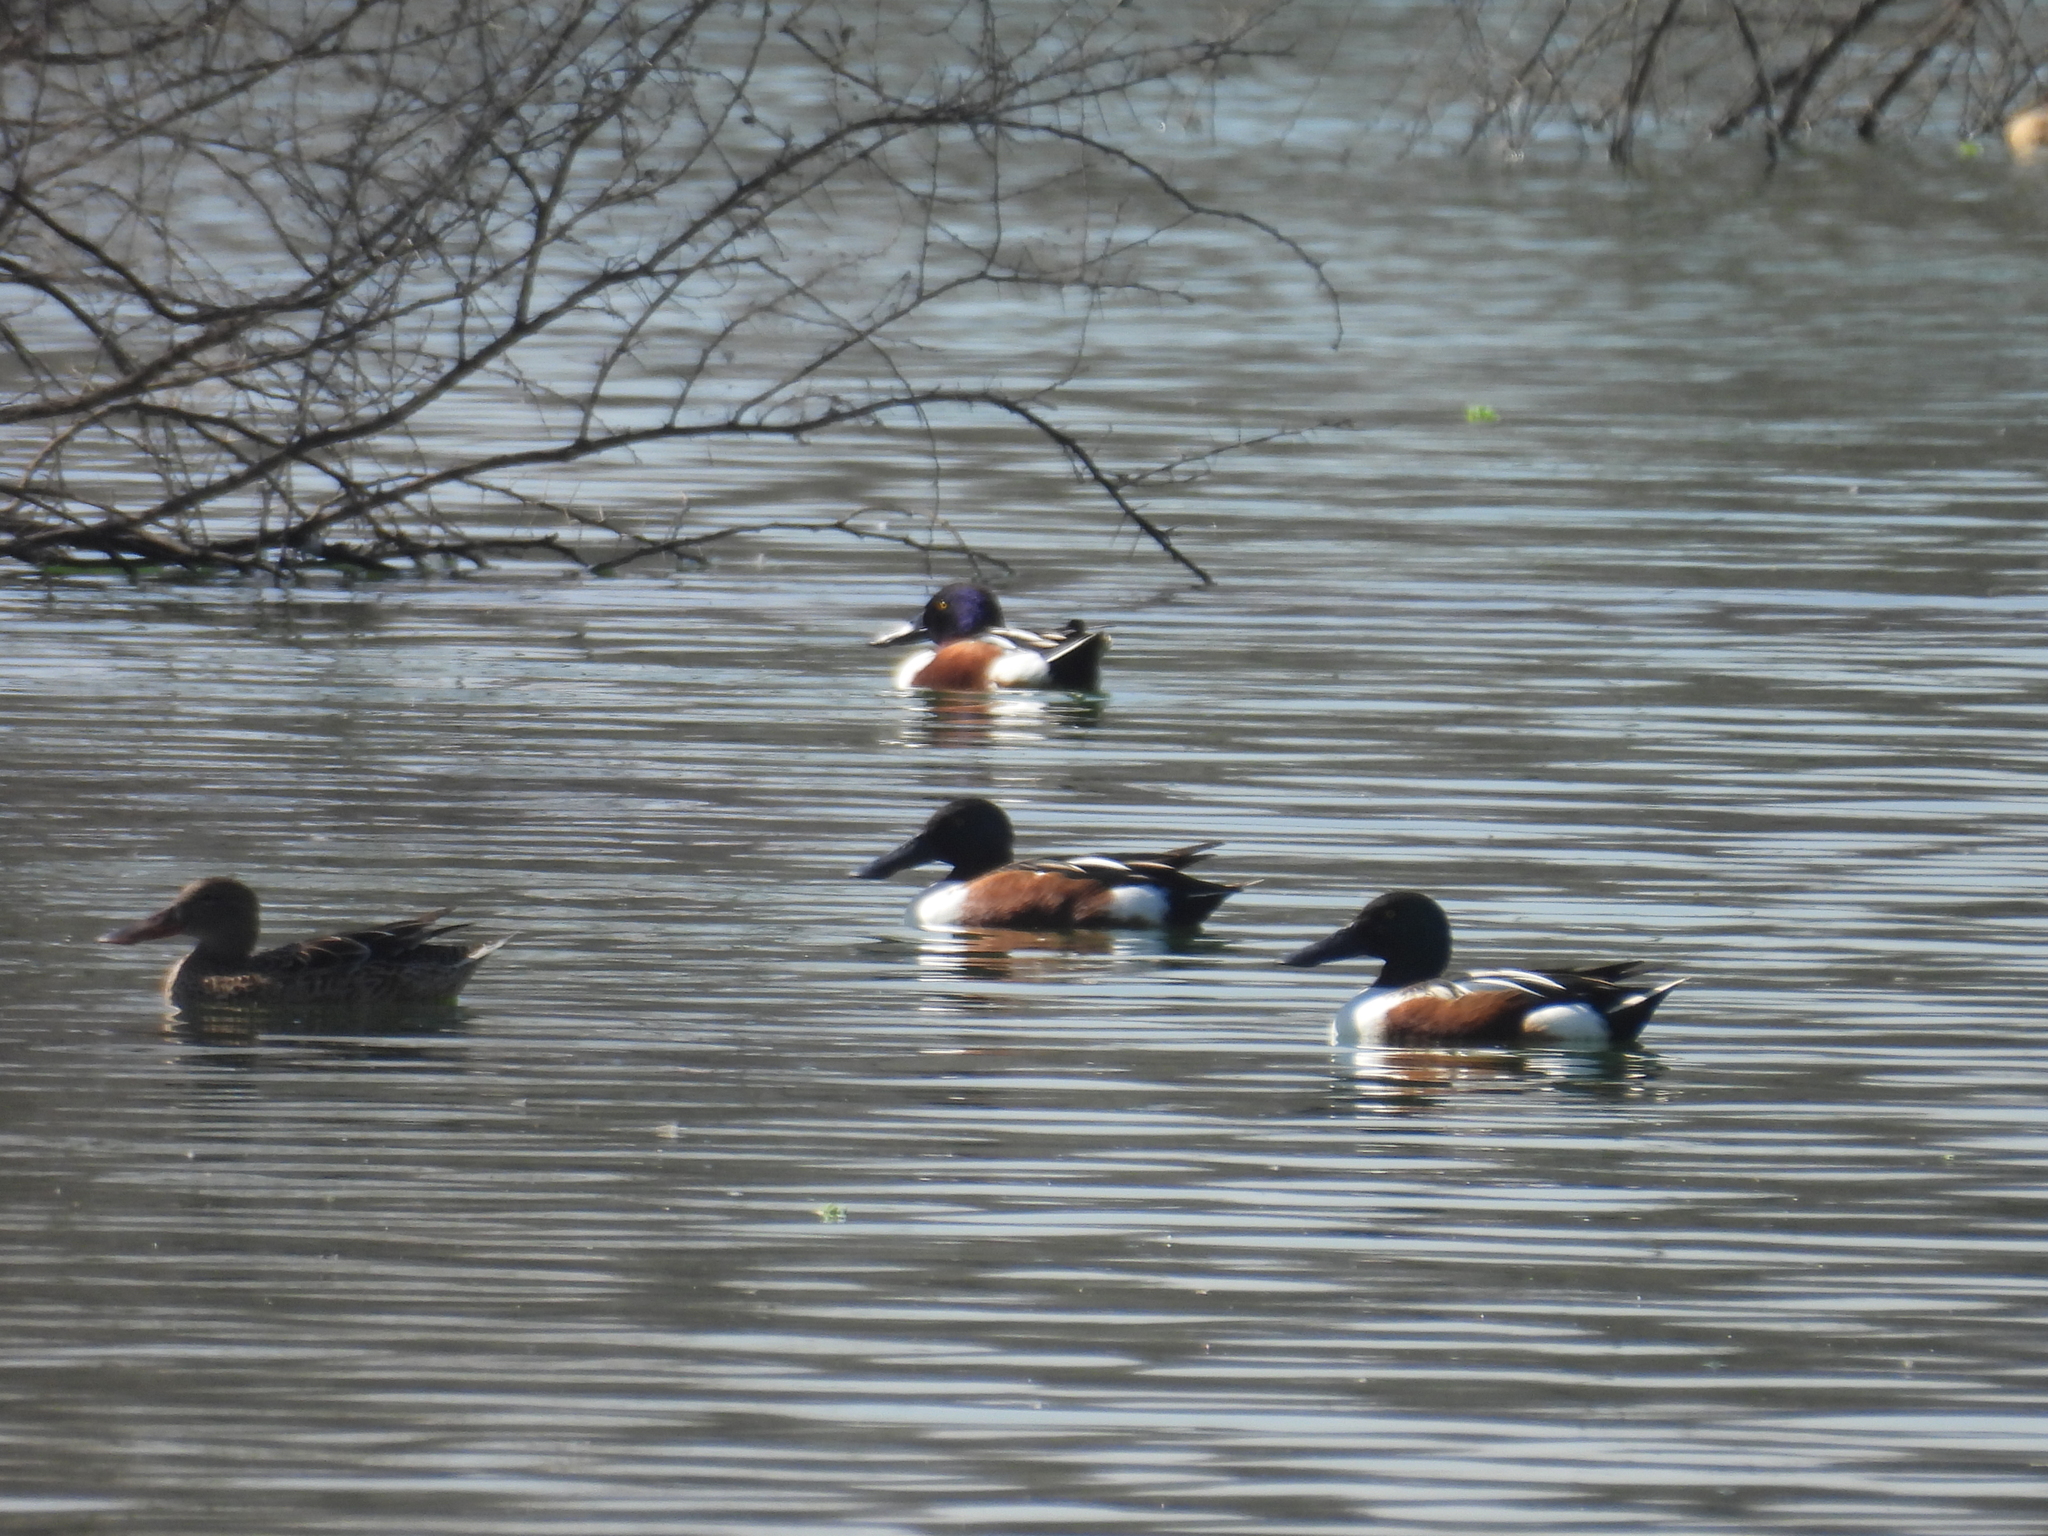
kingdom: Animalia
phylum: Chordata
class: Aves
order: Anseriformes
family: Anatidae
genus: Spatula
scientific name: Spatula clypeata
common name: Northern shoveler
